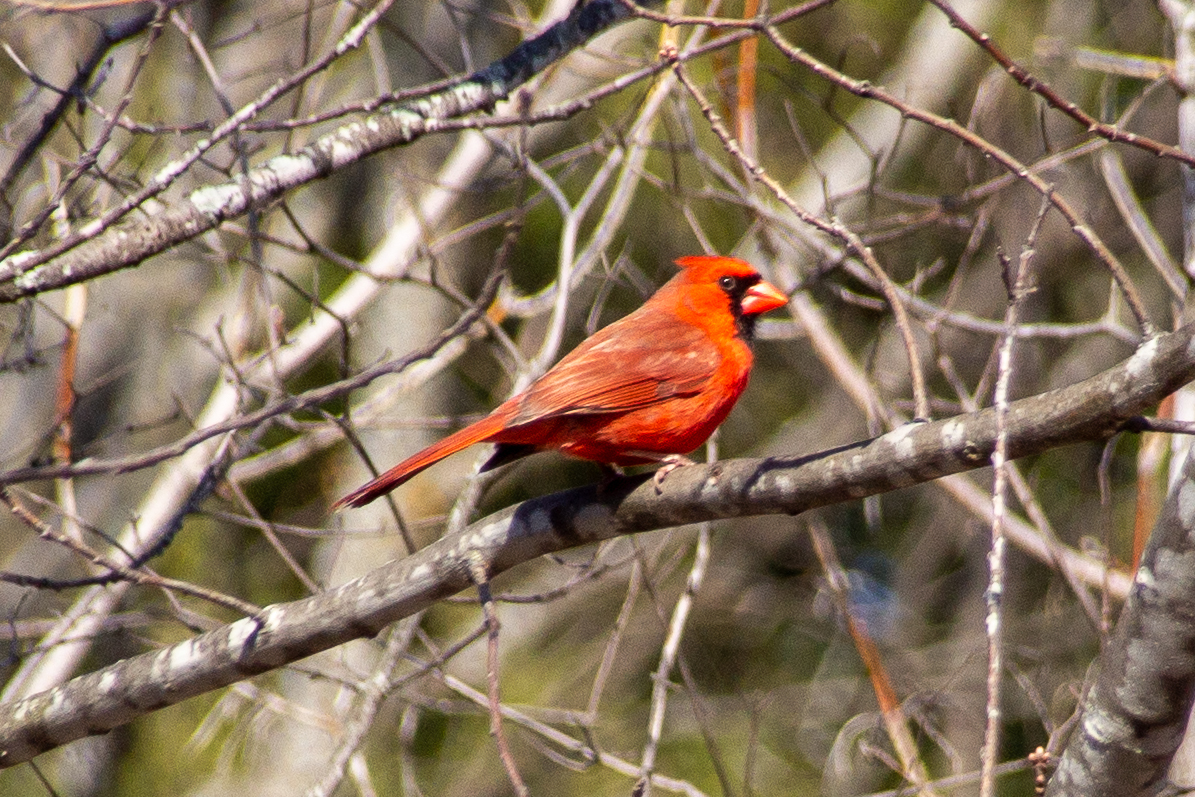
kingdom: Animalia
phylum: Chordata
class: Aves
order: Passeriformes
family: Cardinalidae
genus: Cardinalis
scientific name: Cardinalis cardinalis
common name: Northern cardinal
